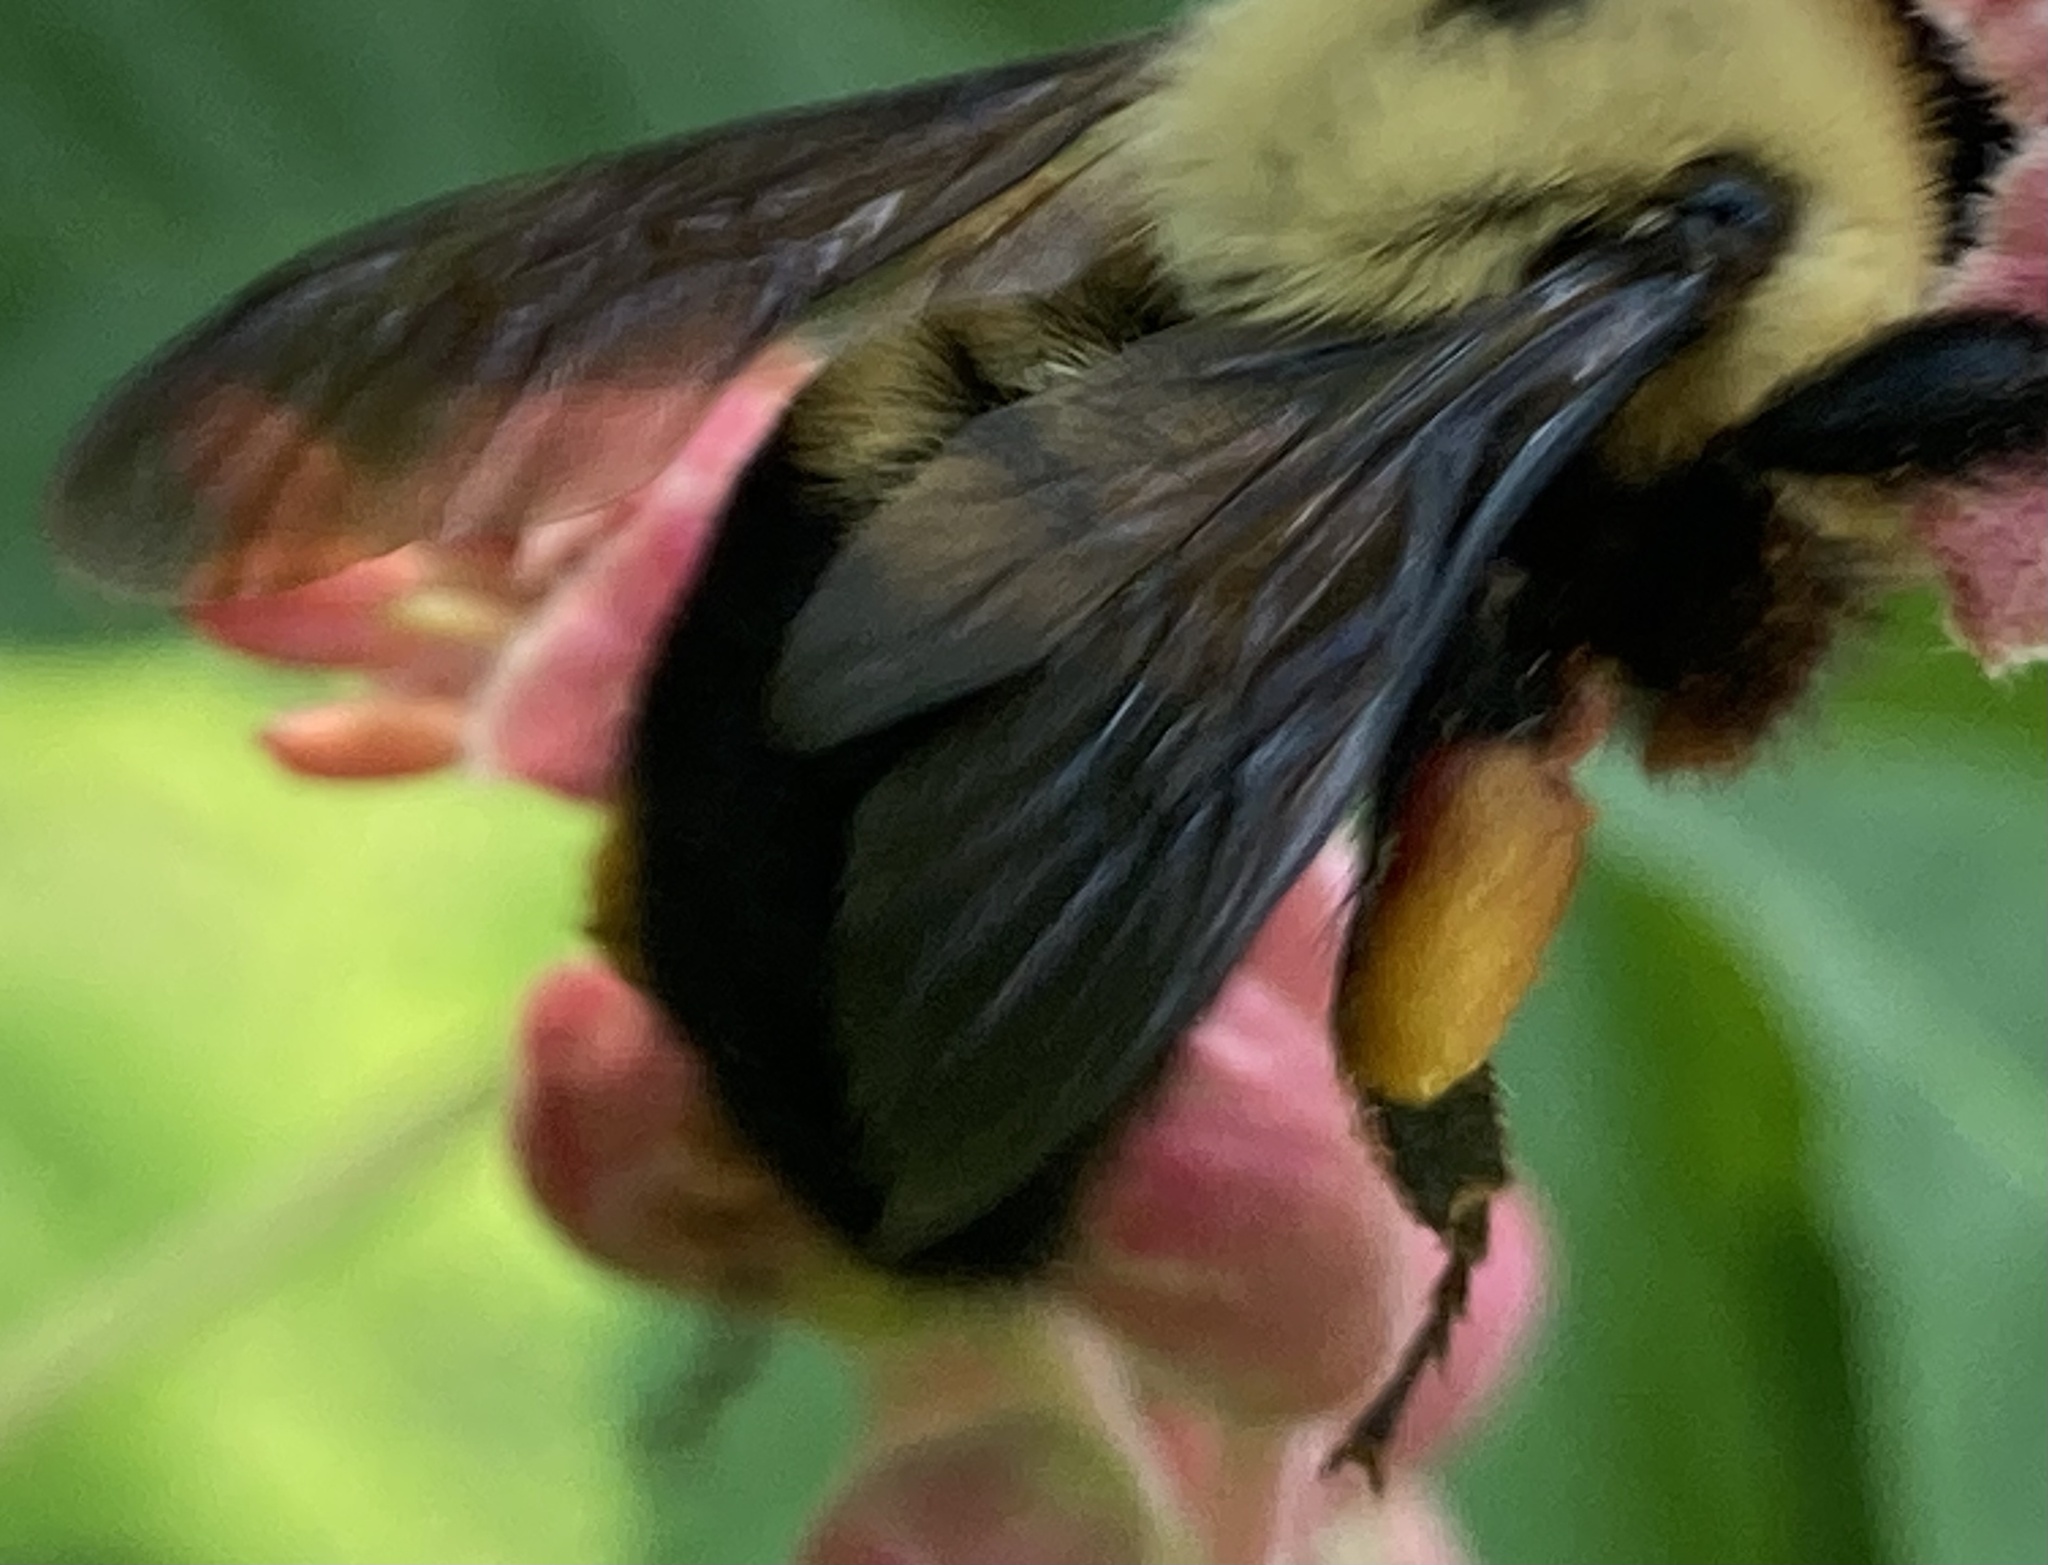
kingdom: Animalia
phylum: Arthropoda
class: Insecta
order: Hymenoptera
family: Apidae
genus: Bombus
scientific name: Bombus griseocollis
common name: Brown-belted bumble bee
